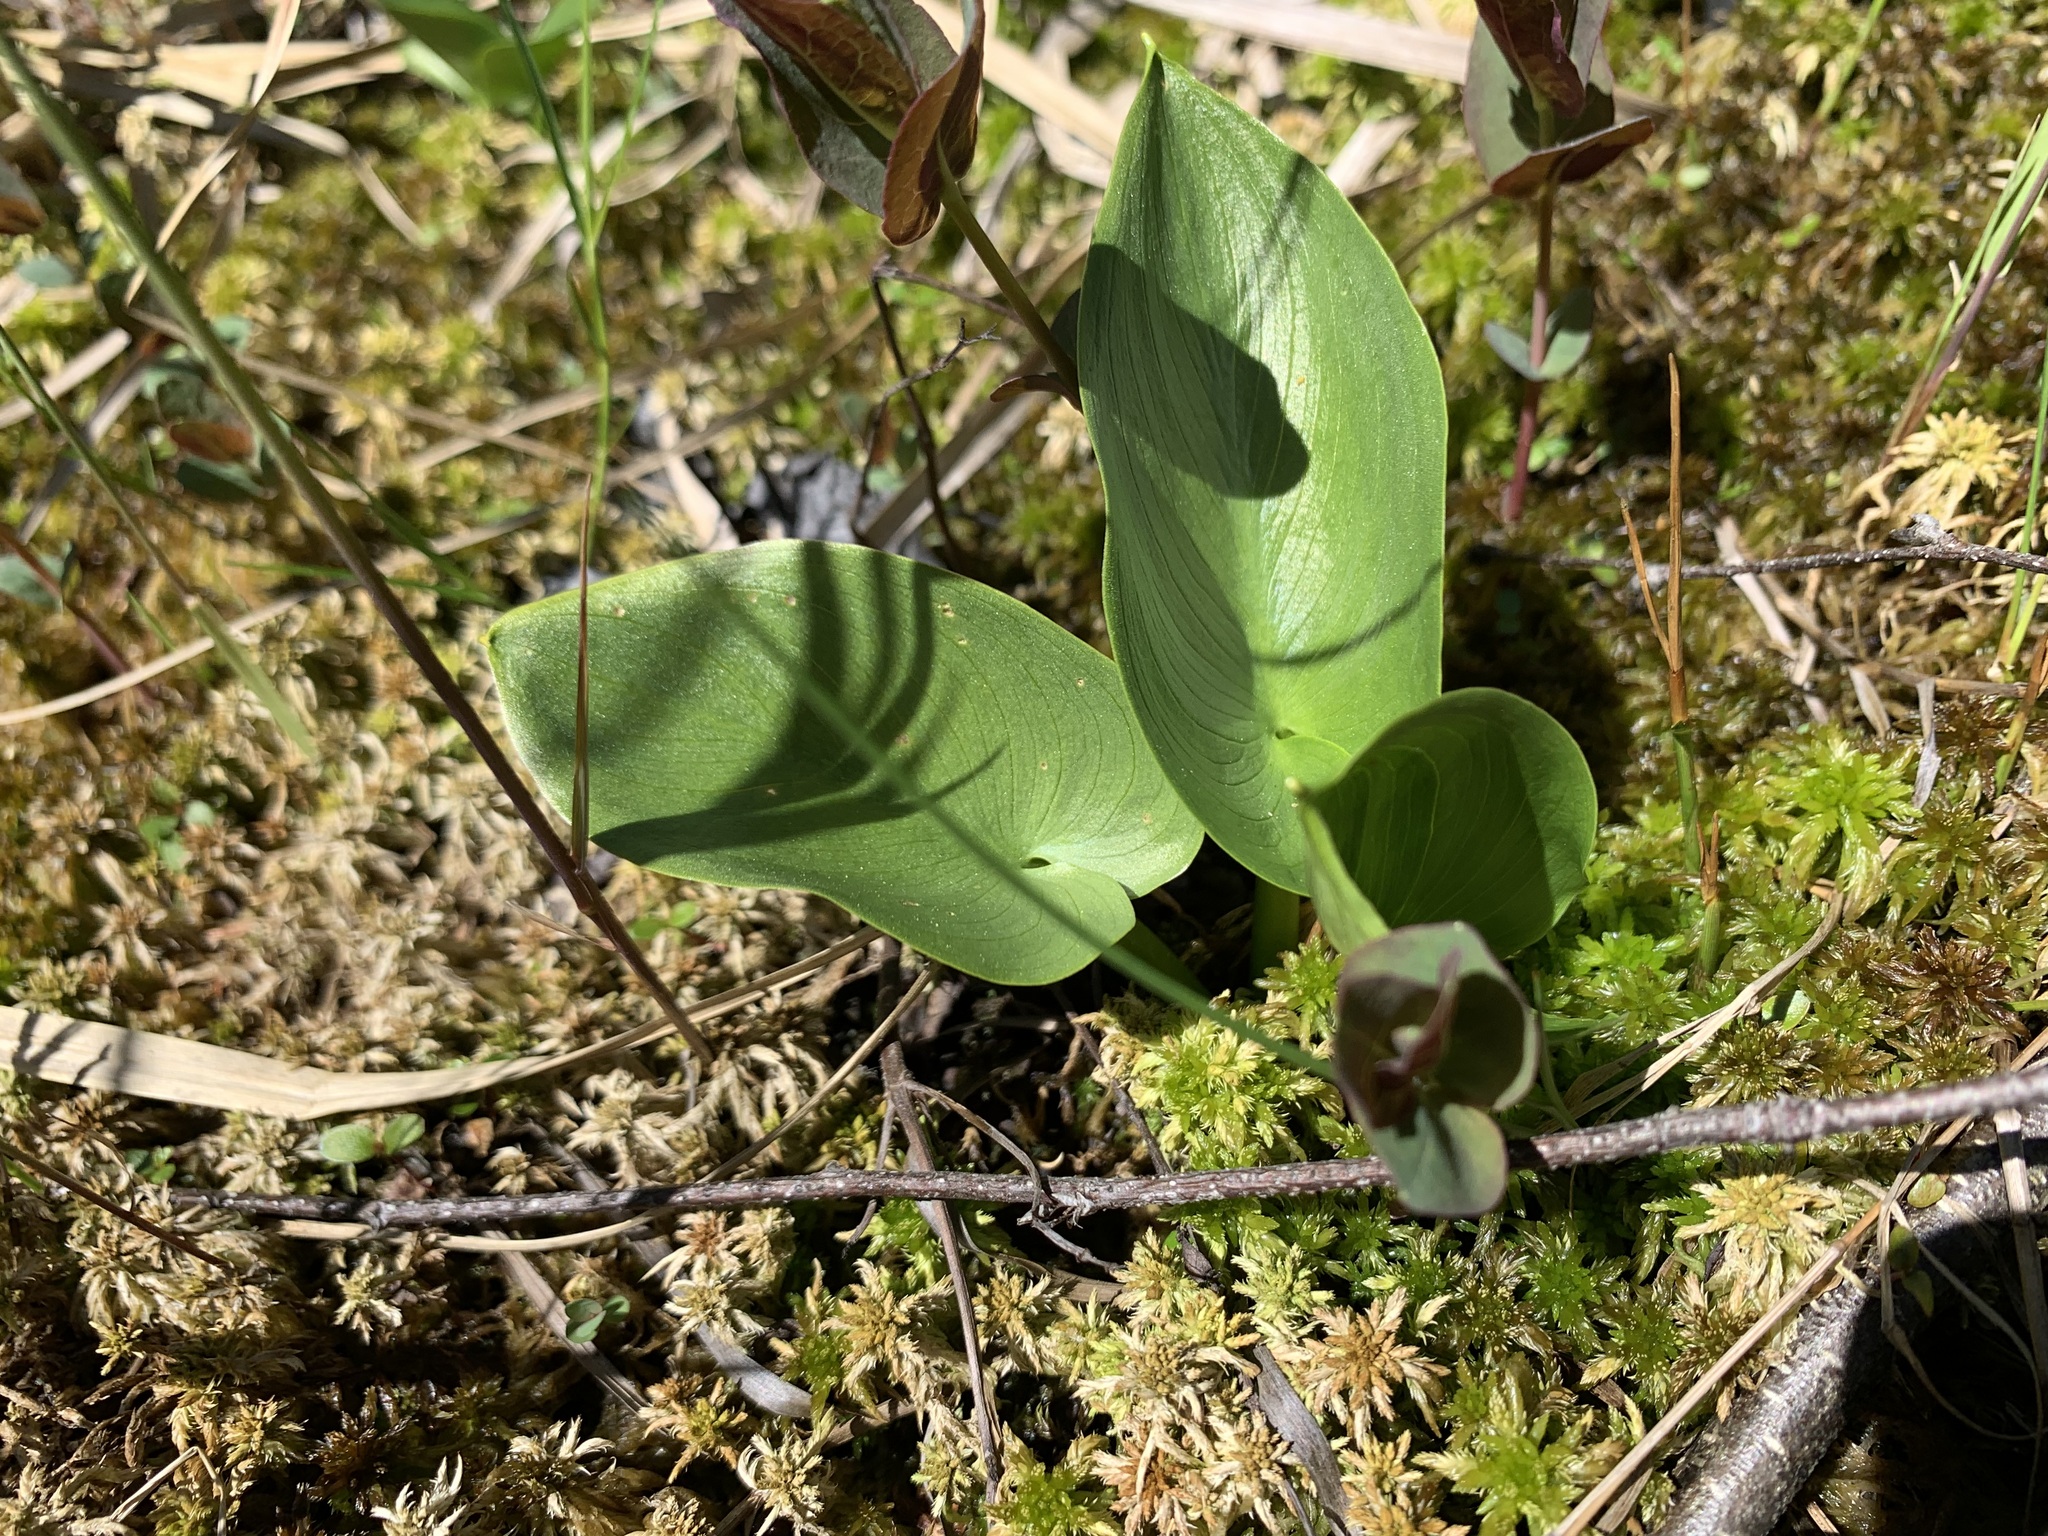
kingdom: Plantae
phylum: Tracheophyta
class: Liliopsida
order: Alismatales
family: Araceae
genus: Calla
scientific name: Calla palustris
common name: Bog arum
